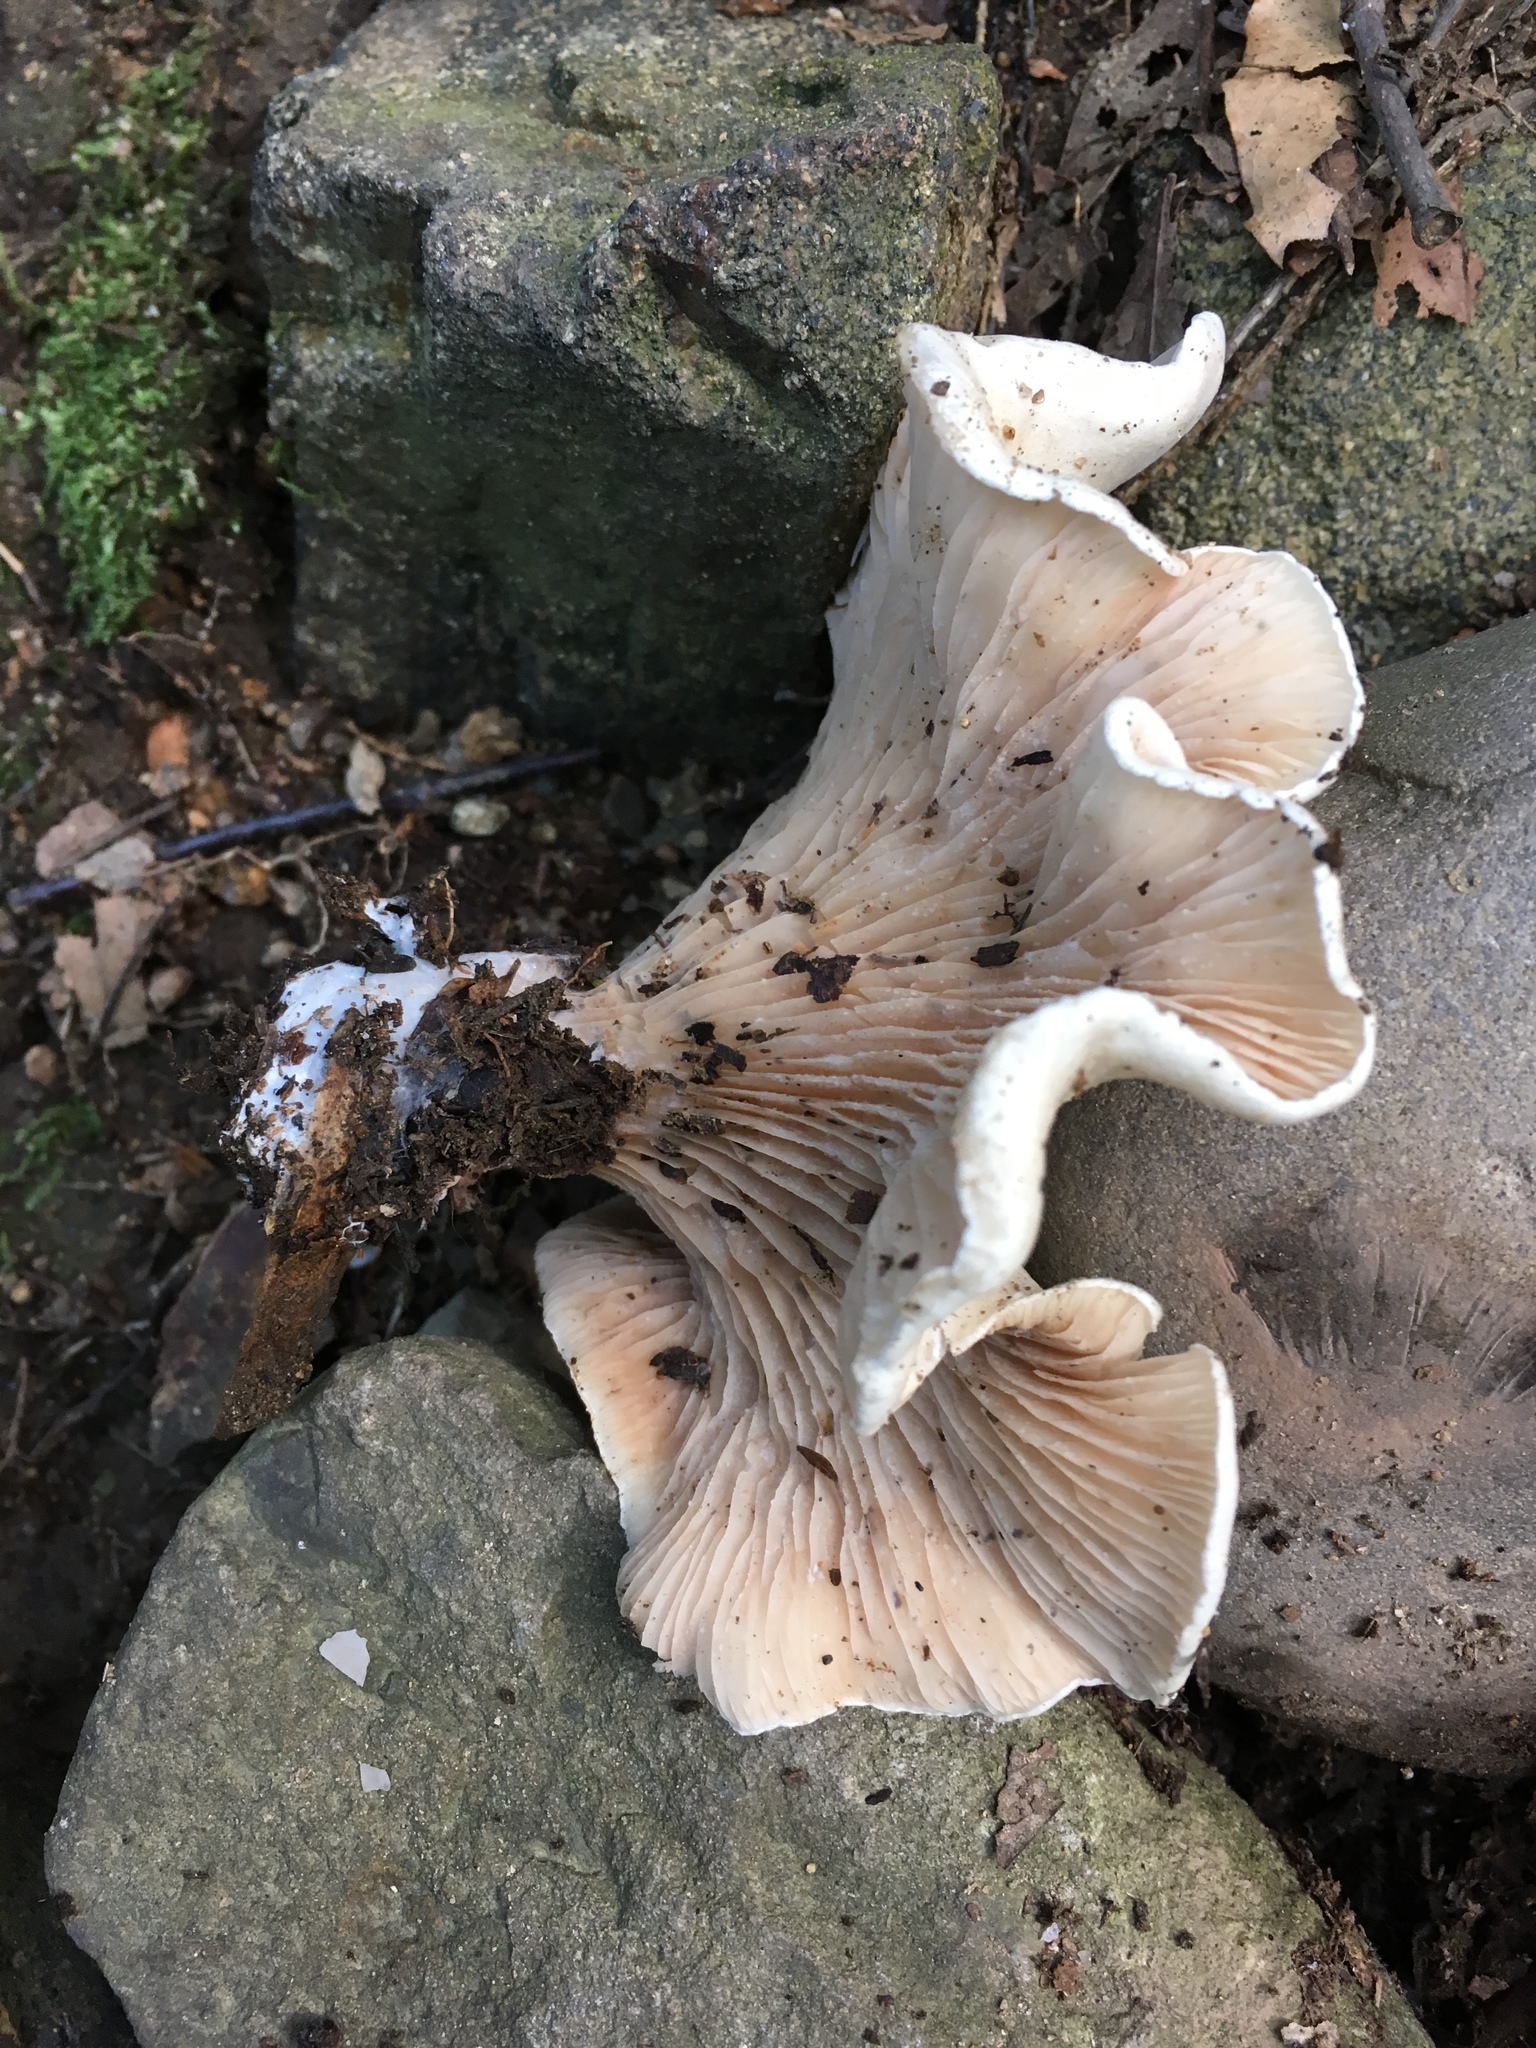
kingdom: Fungi
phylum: Basidiomycota
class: Agaricomycetes
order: Agaricales
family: Entolomataceae
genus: Clitopilus
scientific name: Clitopilus prunulus
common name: The miller
